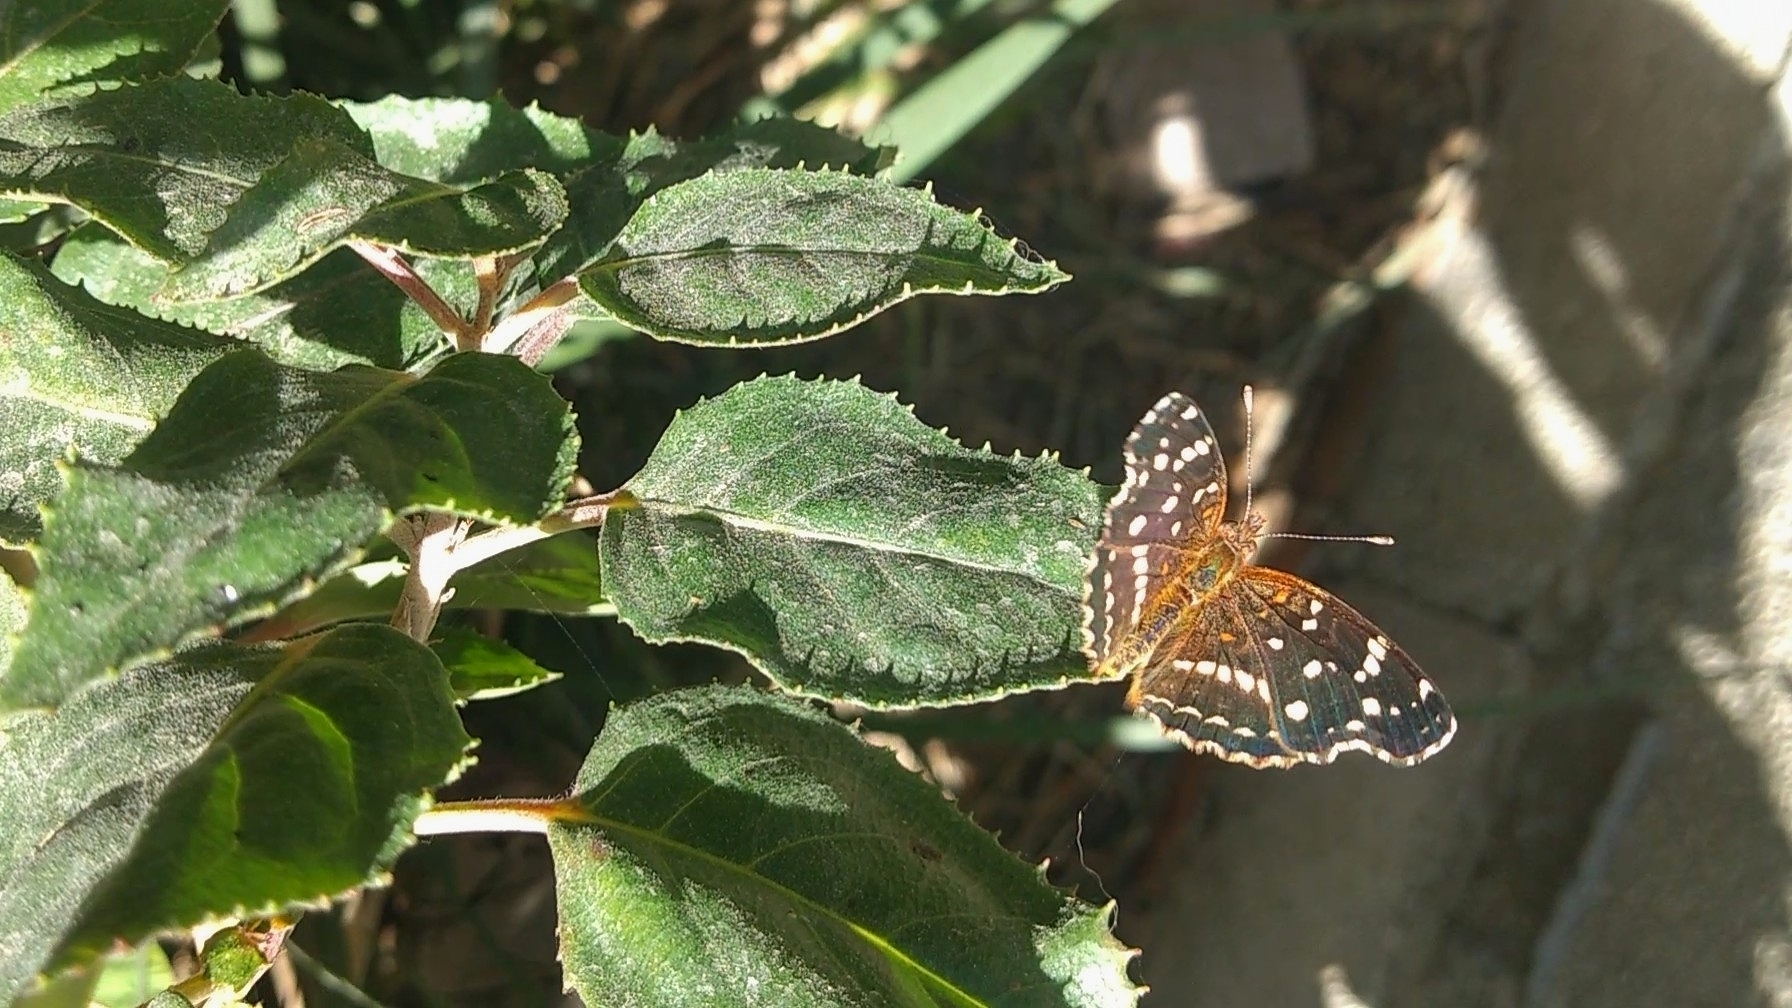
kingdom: Animalia
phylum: Arthropoda
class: Insecta
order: Lepidoptera
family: Nymphalidae
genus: Anthanassa
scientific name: Anthanassa texana
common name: Texan crescent
